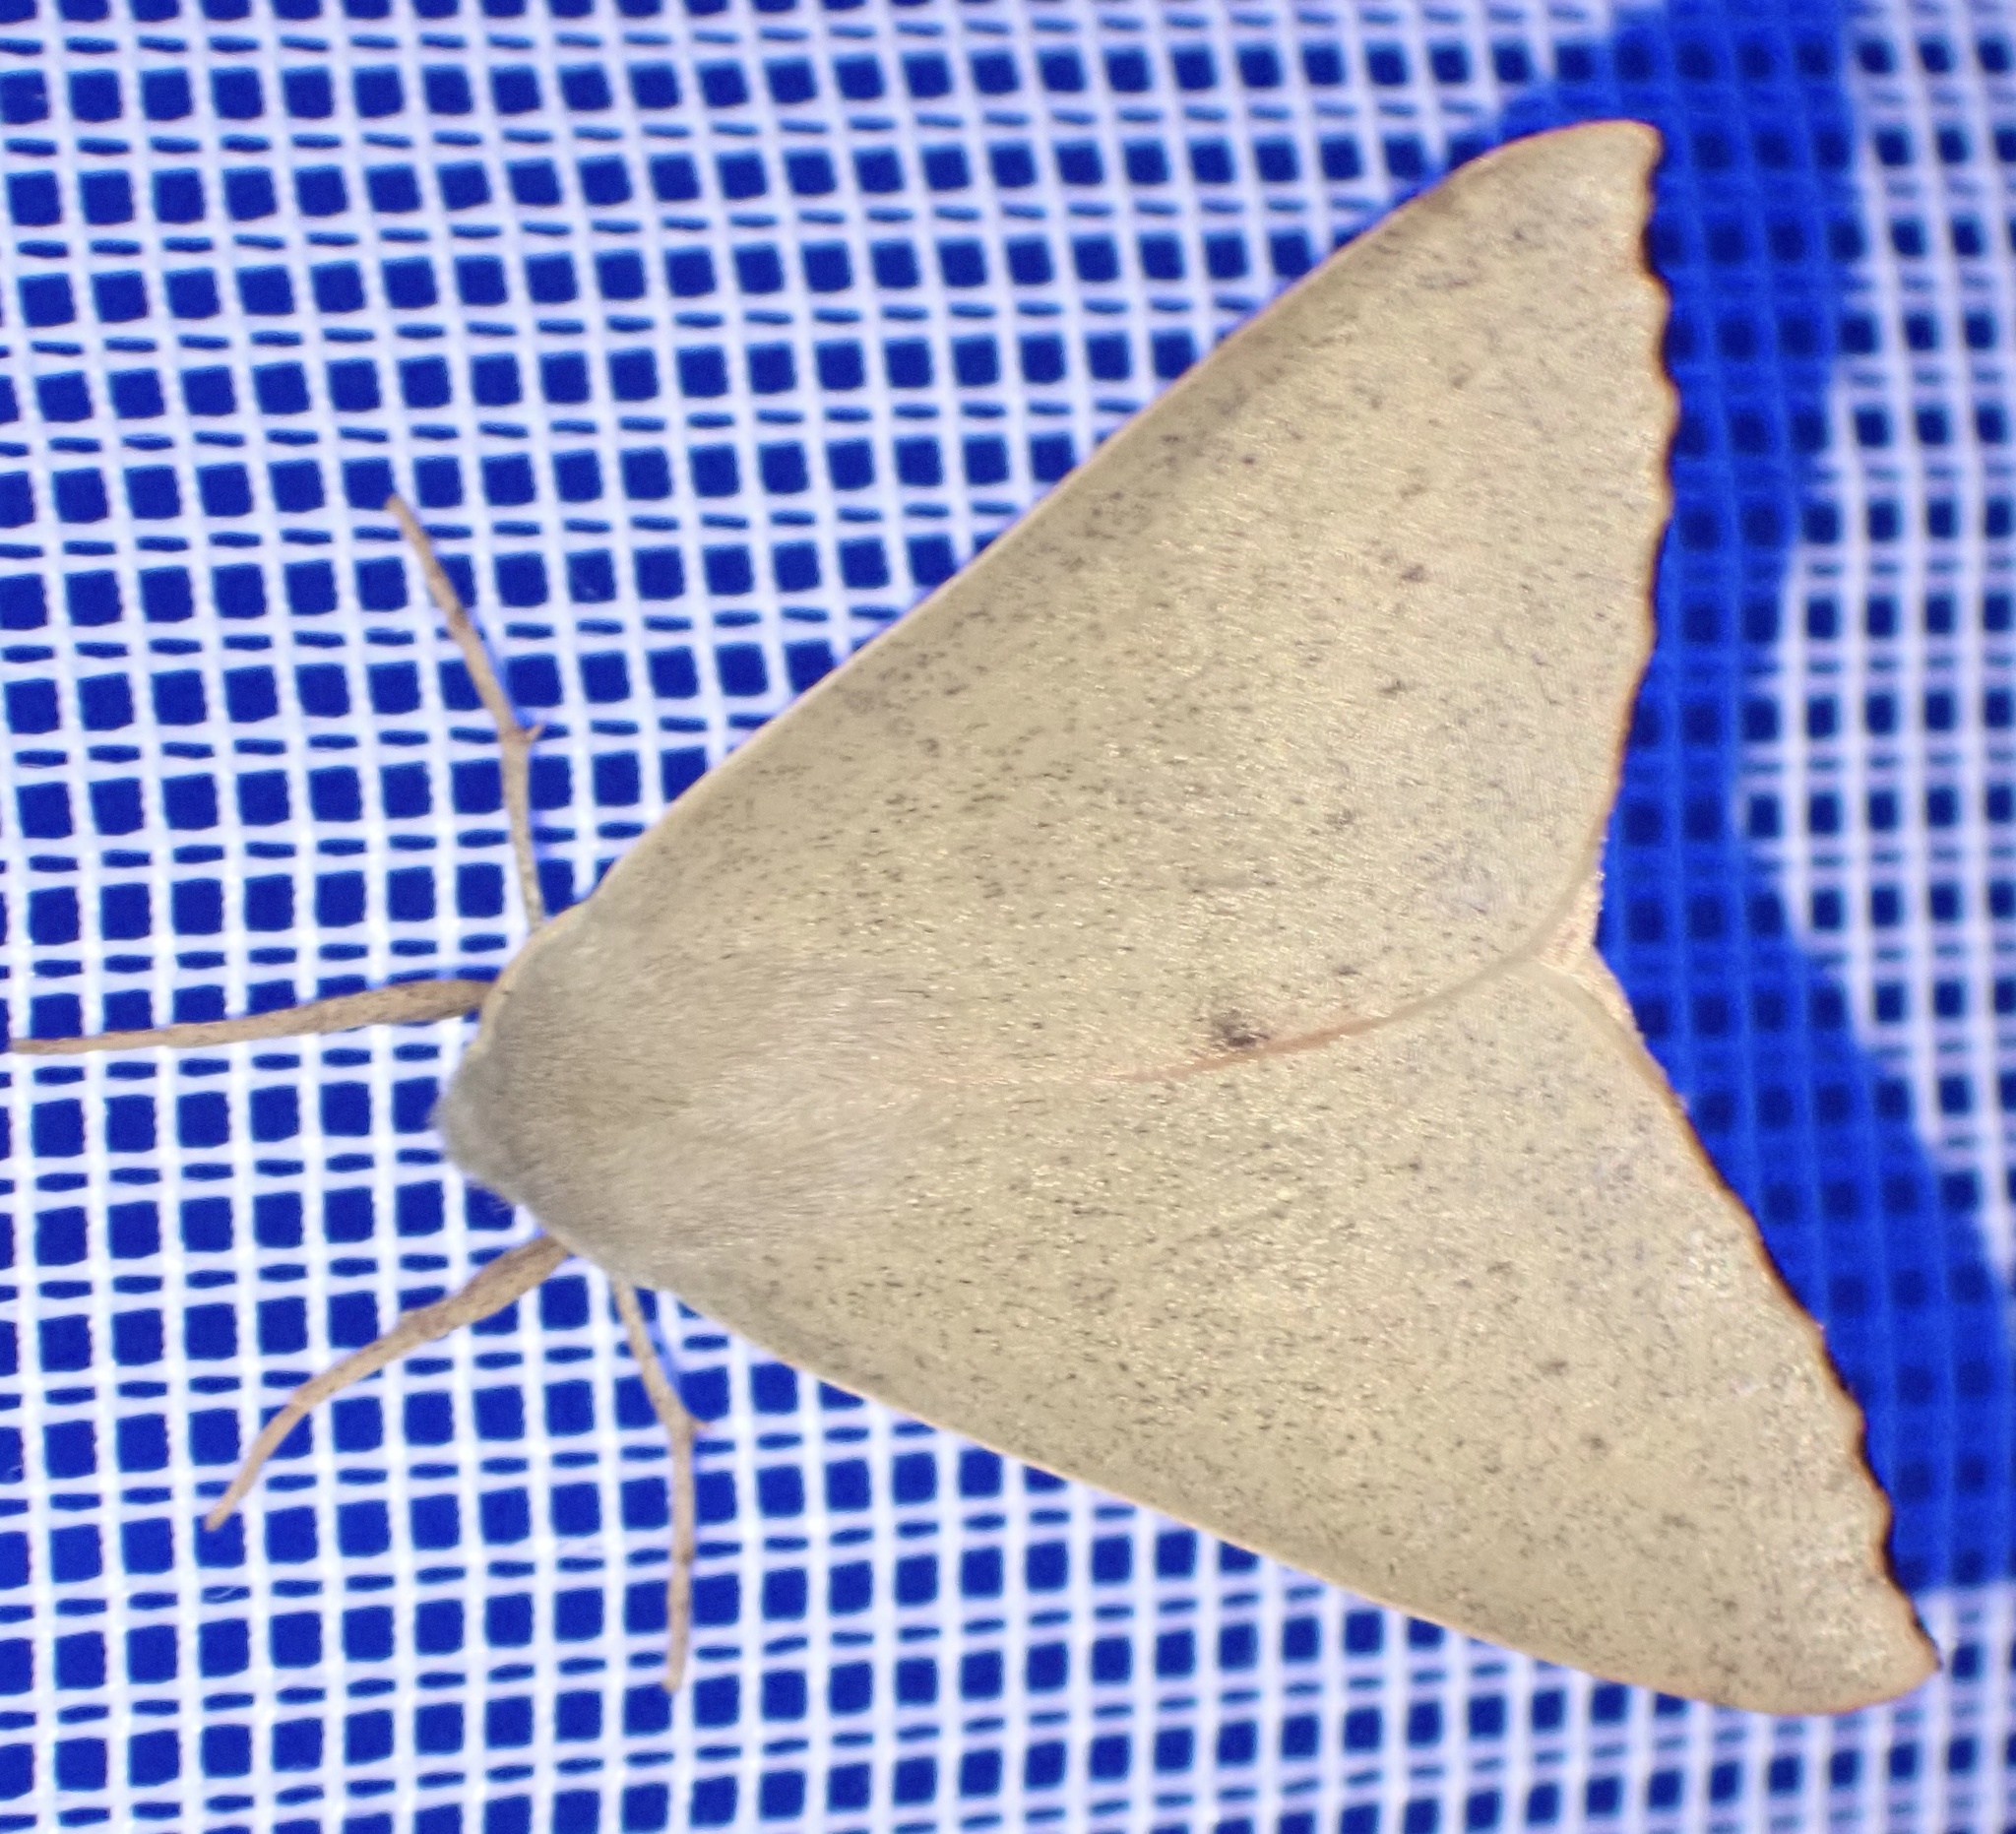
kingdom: Animalia
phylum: Arthropoda
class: Insecta
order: Lepidoptera
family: Geometridae
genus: Arhodia
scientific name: Arhodia lasiocamparia
